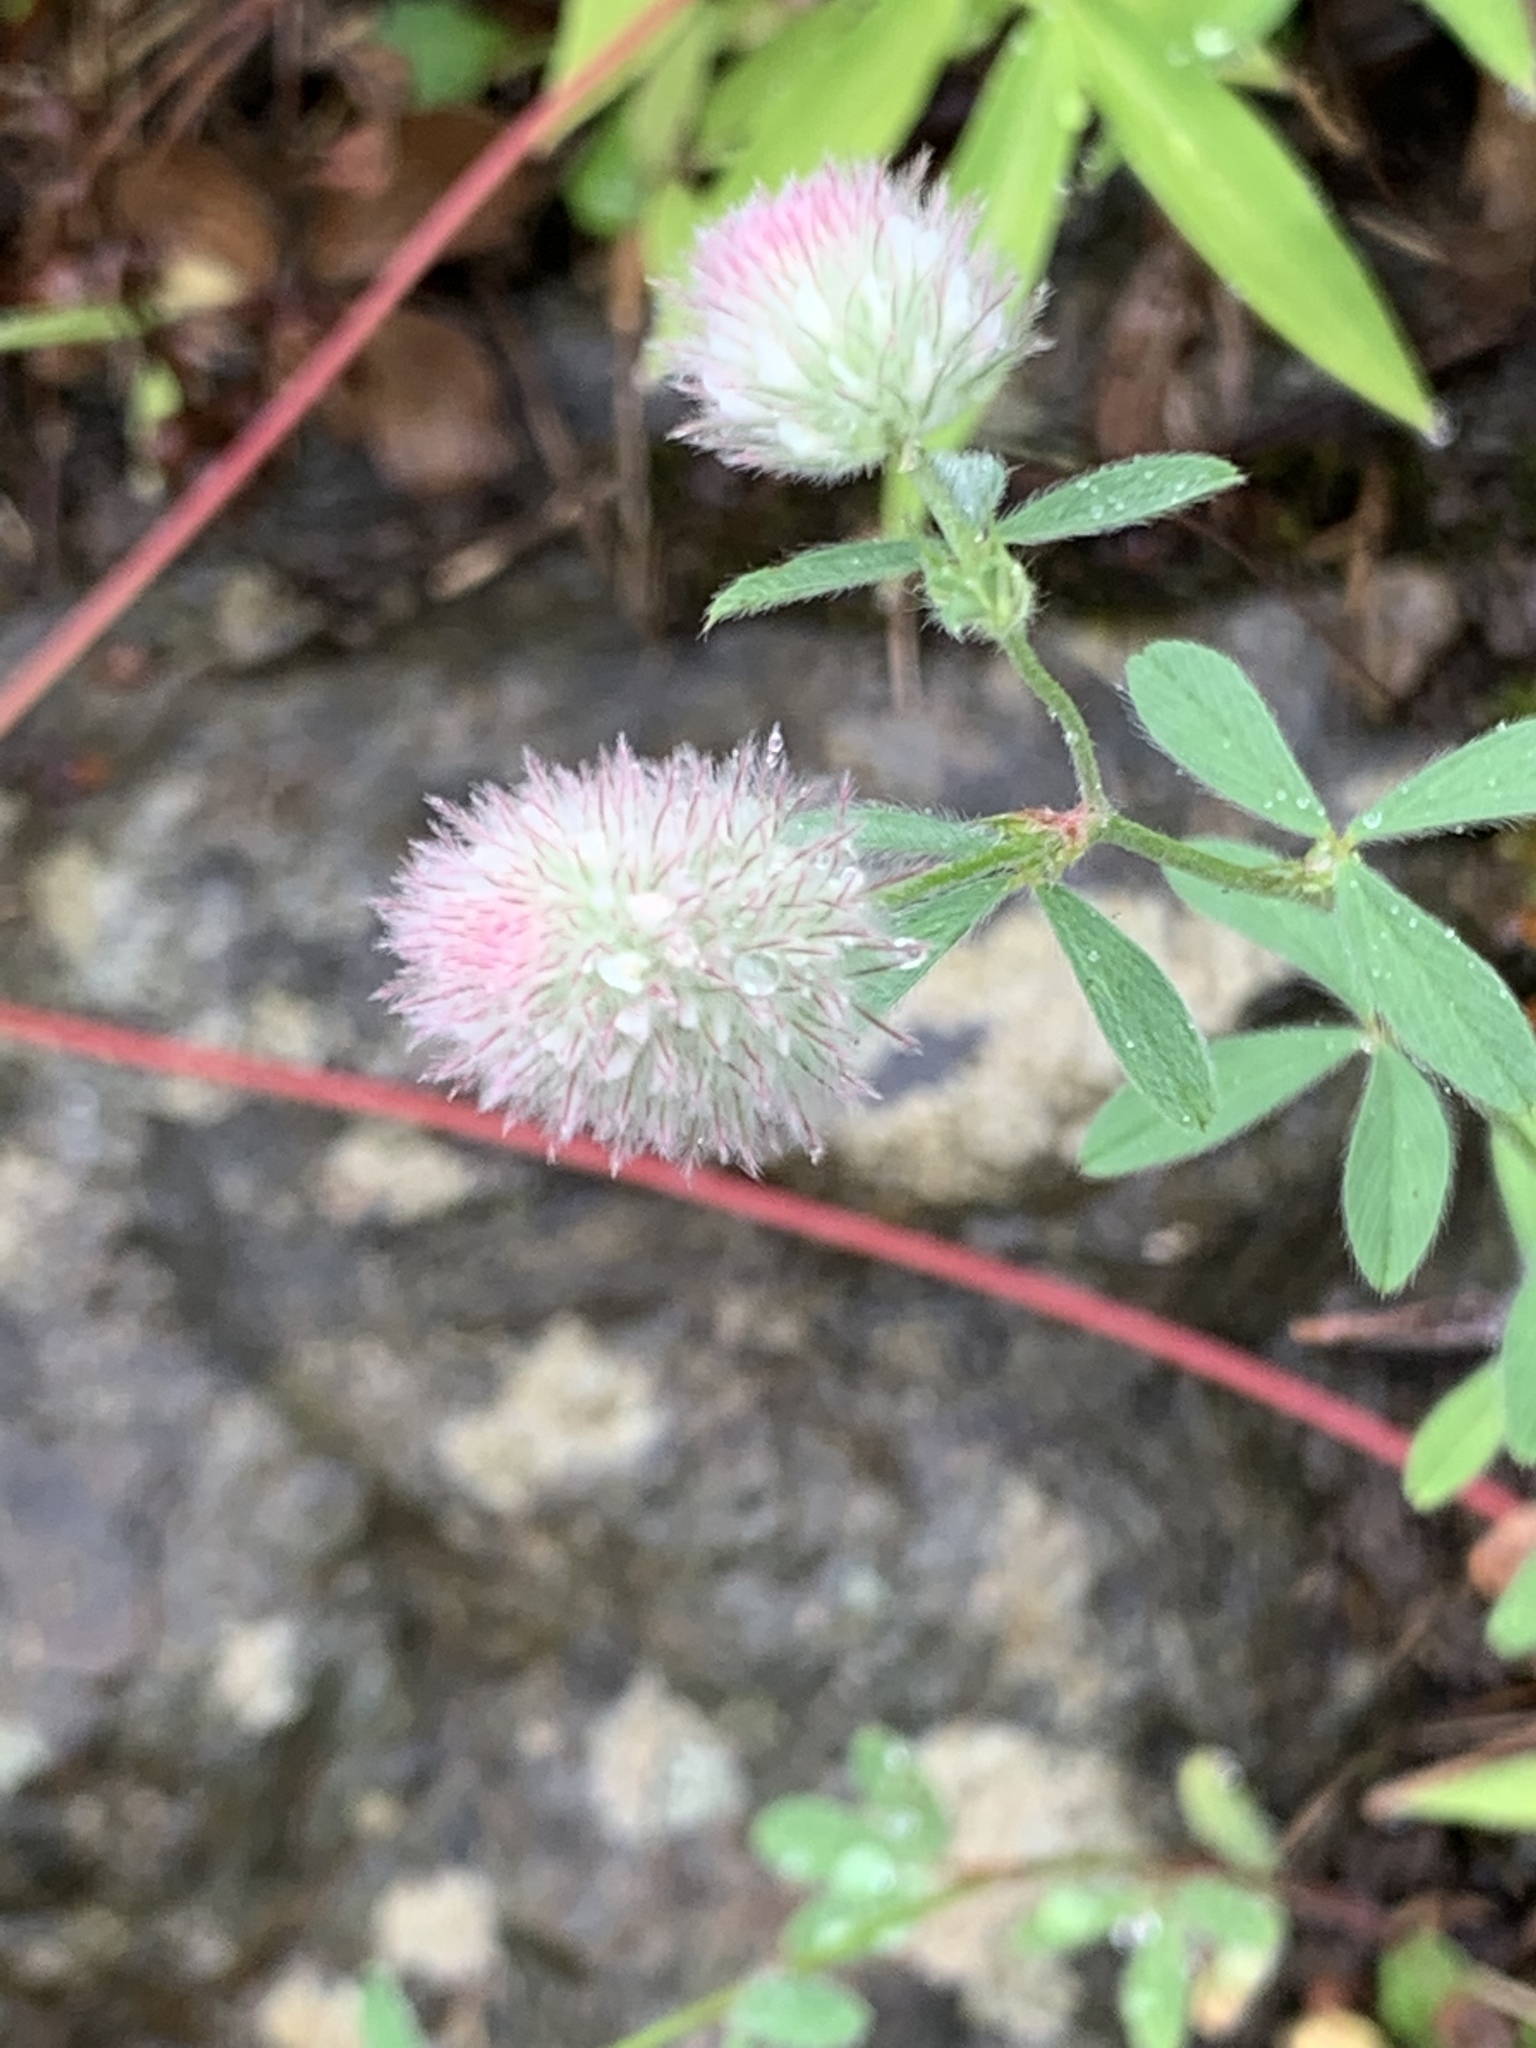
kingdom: Plantae
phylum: Tracheophyta
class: Magnoliopsida
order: Fabales
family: Fabaceae
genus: Trifolium
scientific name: Trifolium arvense
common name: Hare's-foot clover
